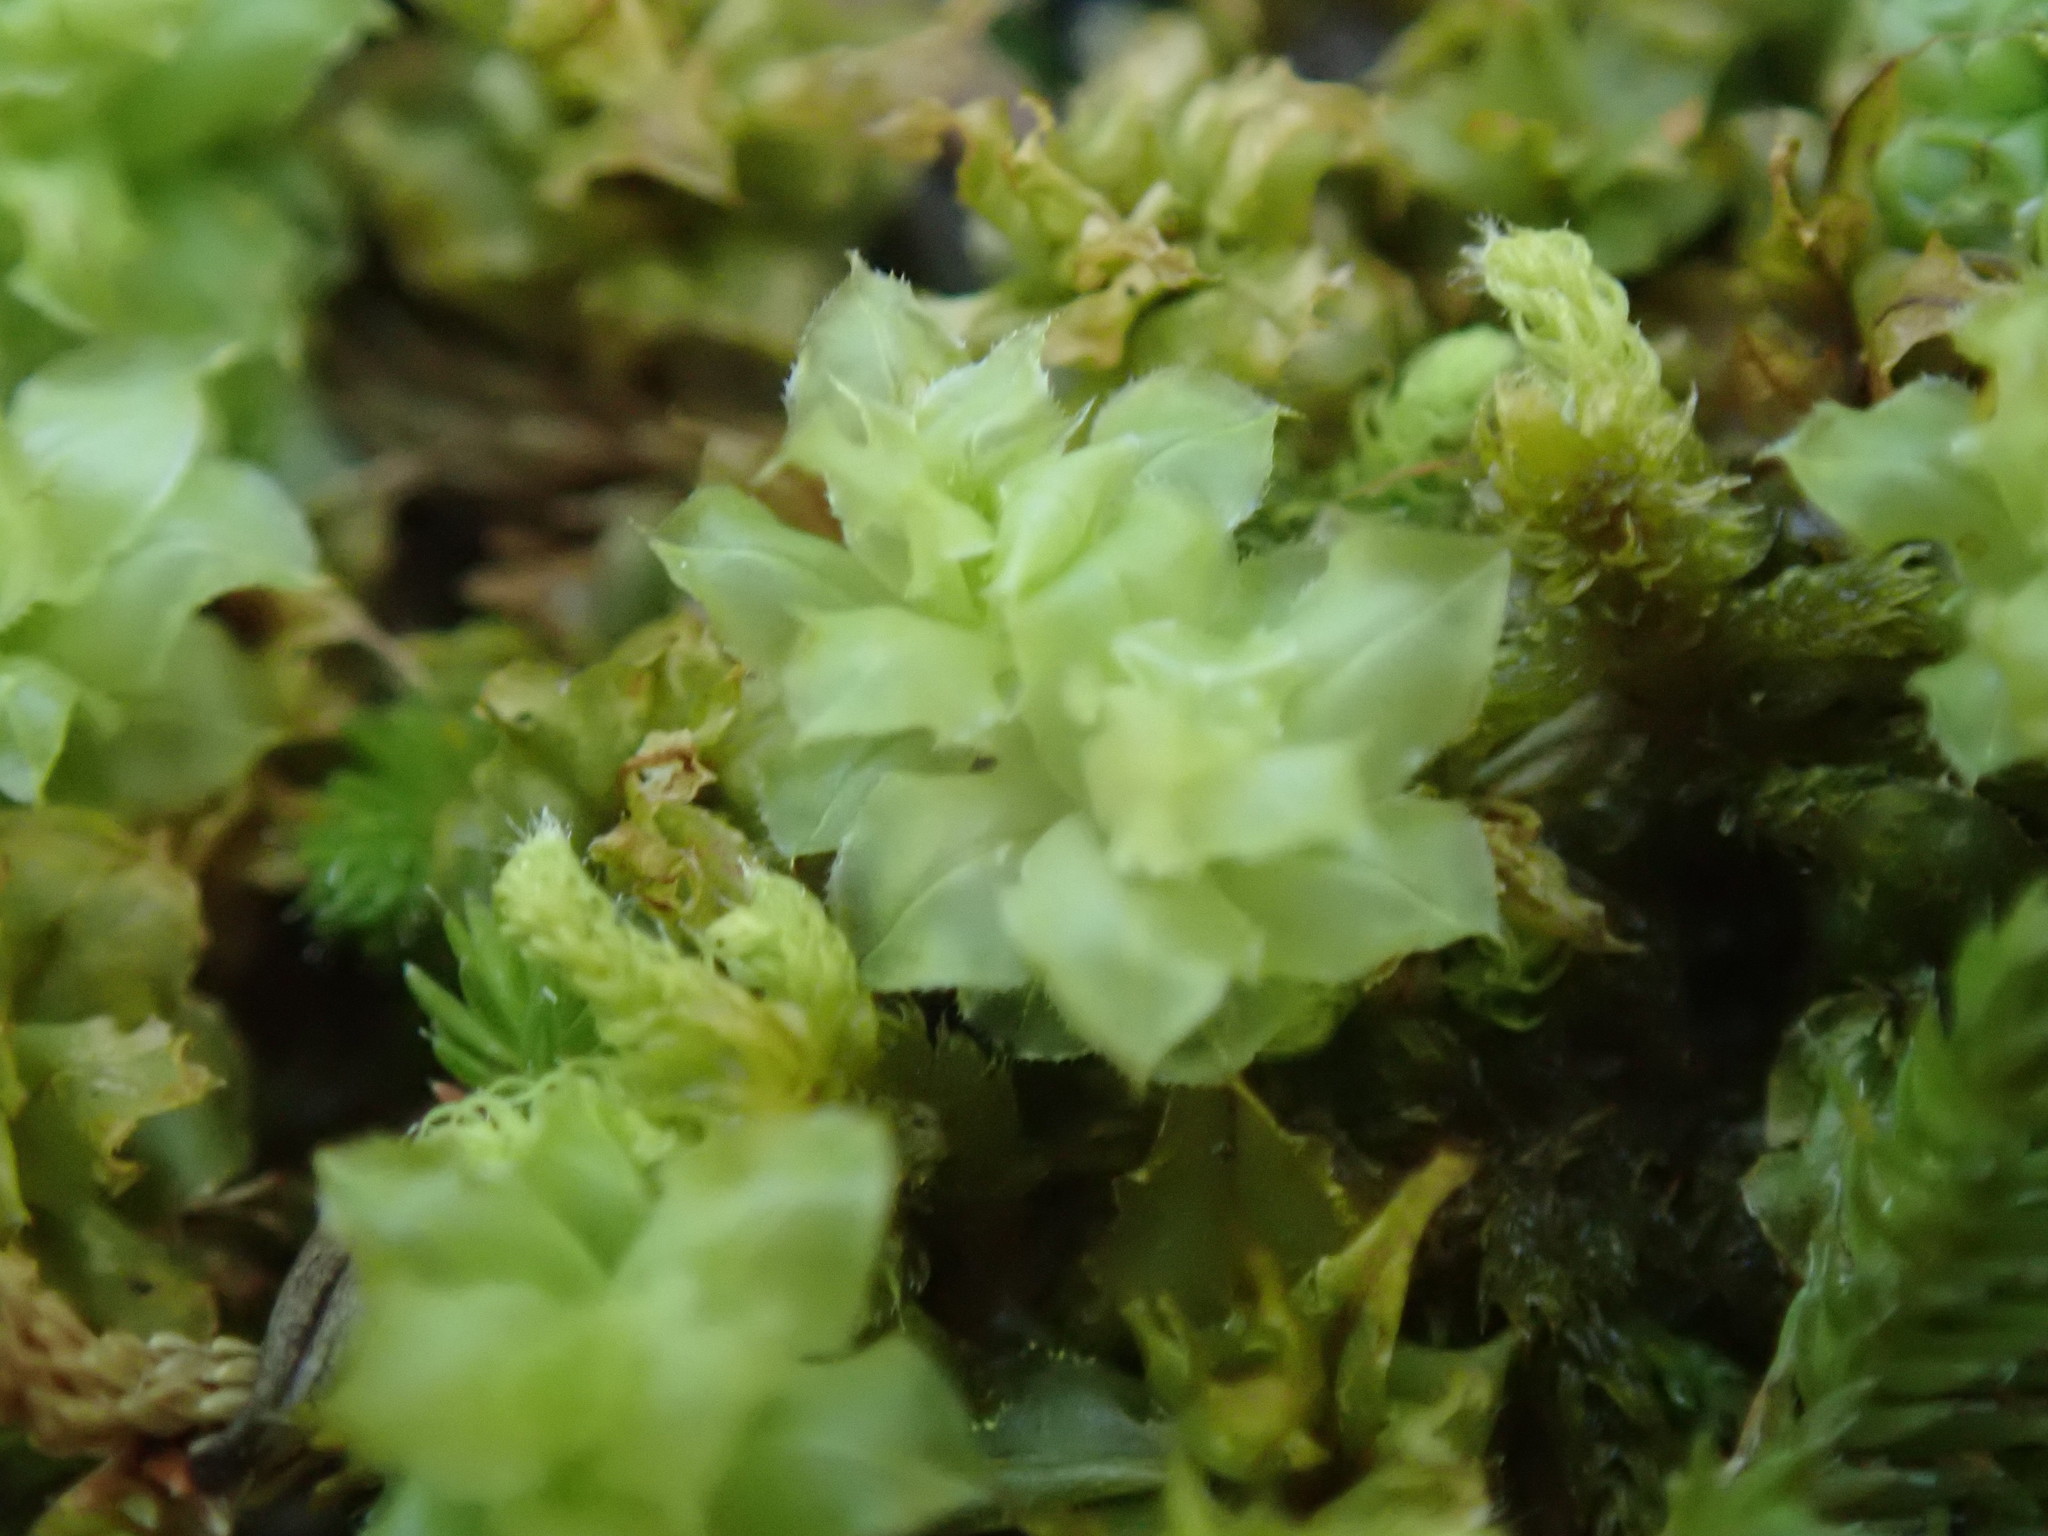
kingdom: Plantae
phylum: Bryophyta
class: Bryopsida
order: Bryales
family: Mniaceae
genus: Plagiomnium
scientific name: Plagiomnium venustum
